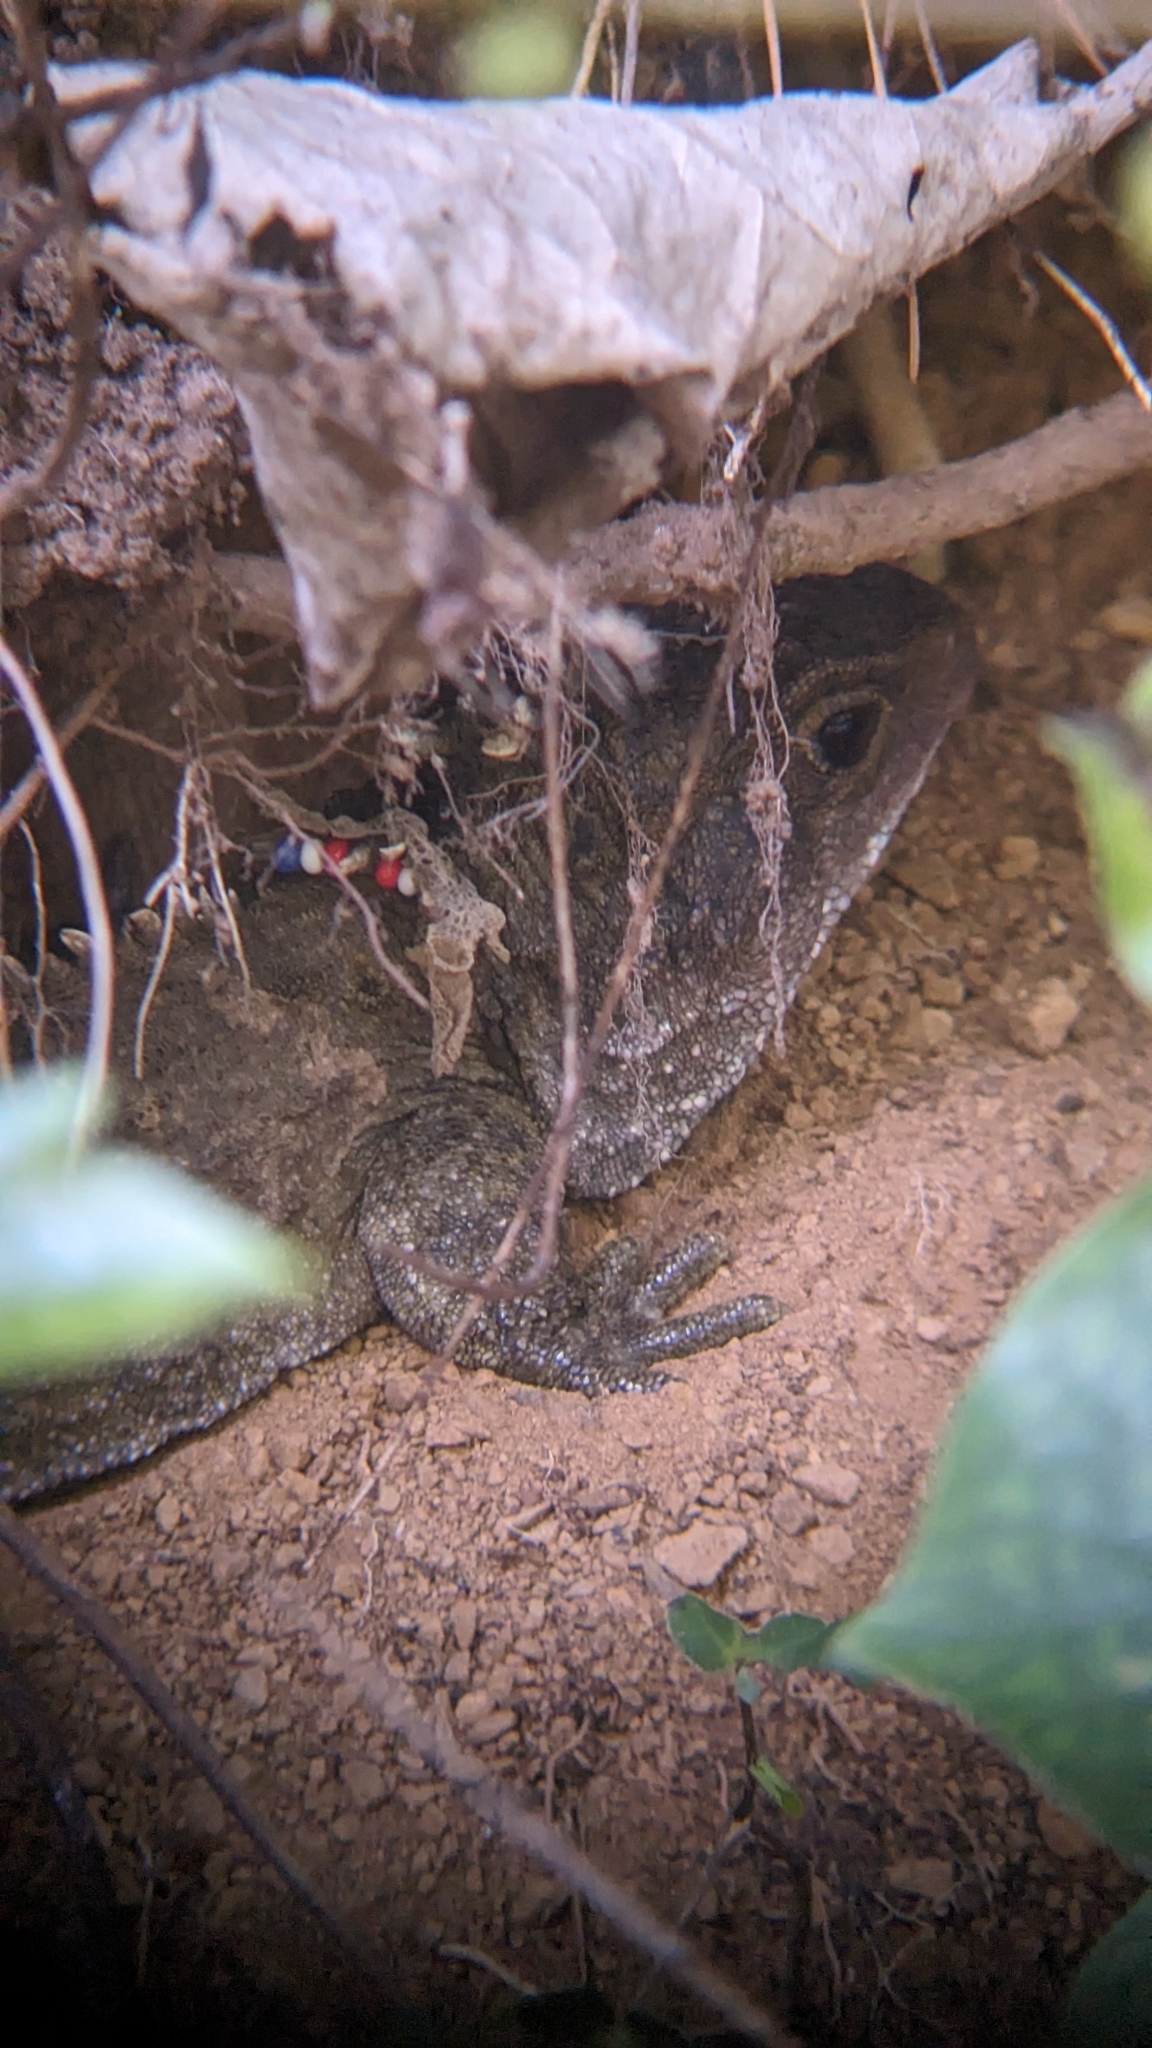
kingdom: Animalia
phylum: Chordata
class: Sphenodontia
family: Sphenodontidae
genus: Sphenodon
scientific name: Sphenodon punctatus
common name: Tuatara
